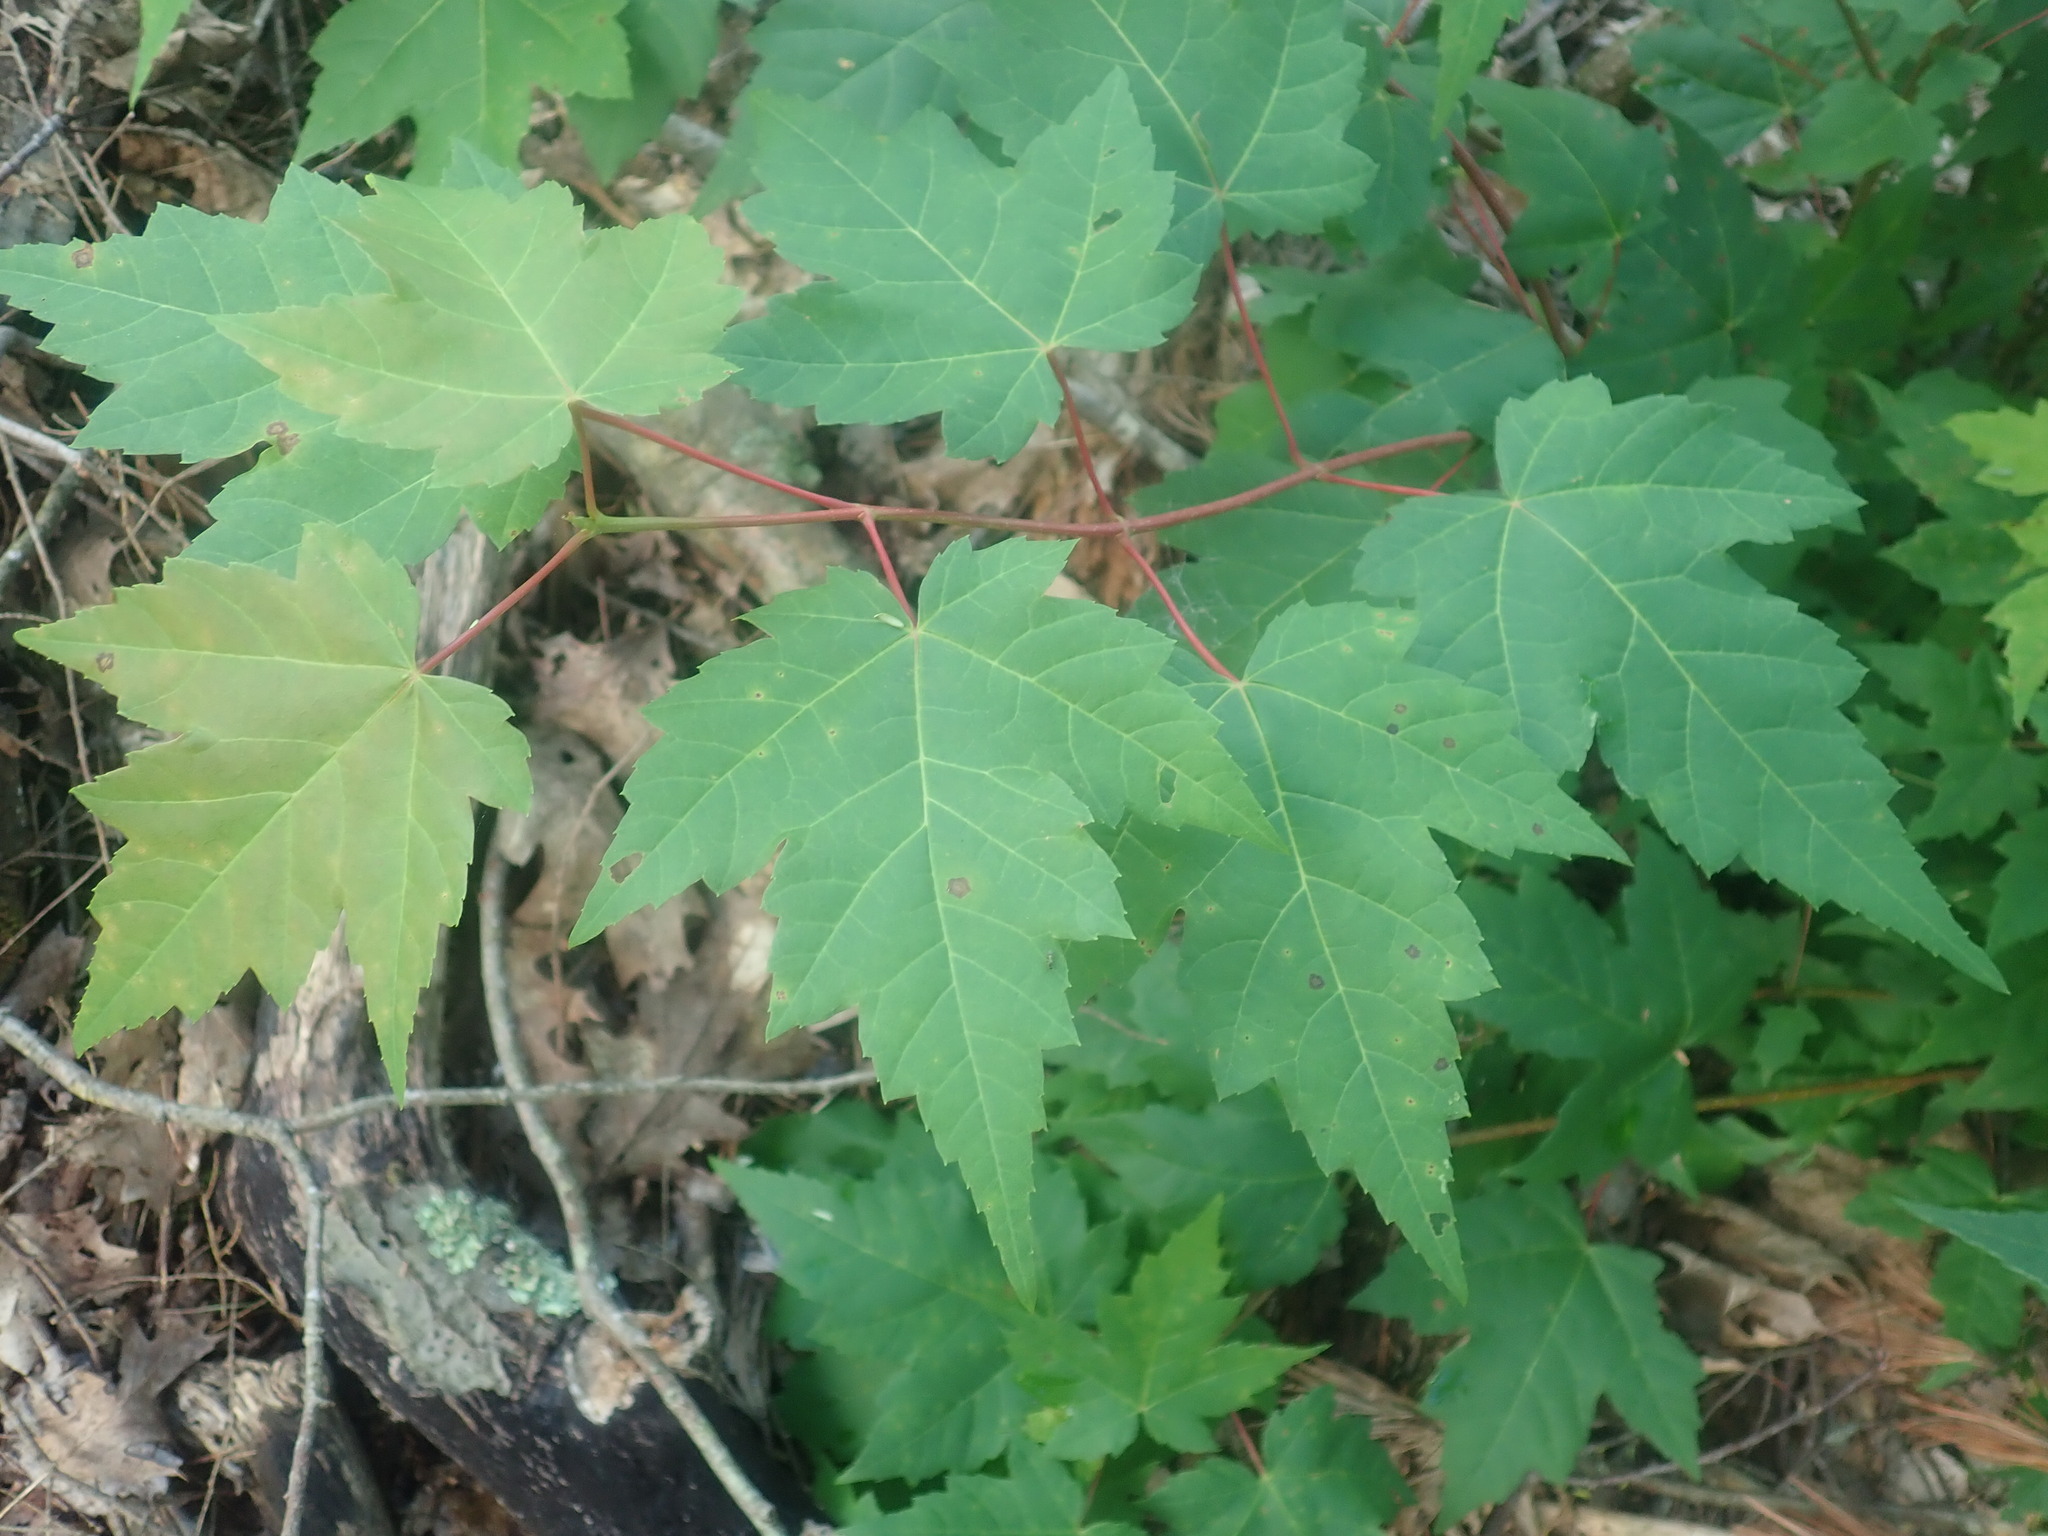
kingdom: Plantae
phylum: Tracheophyta
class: Magnoliopsida
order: Sapindales
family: Sapindaceae
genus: Acer
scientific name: Acer rubrum
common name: Red maple
